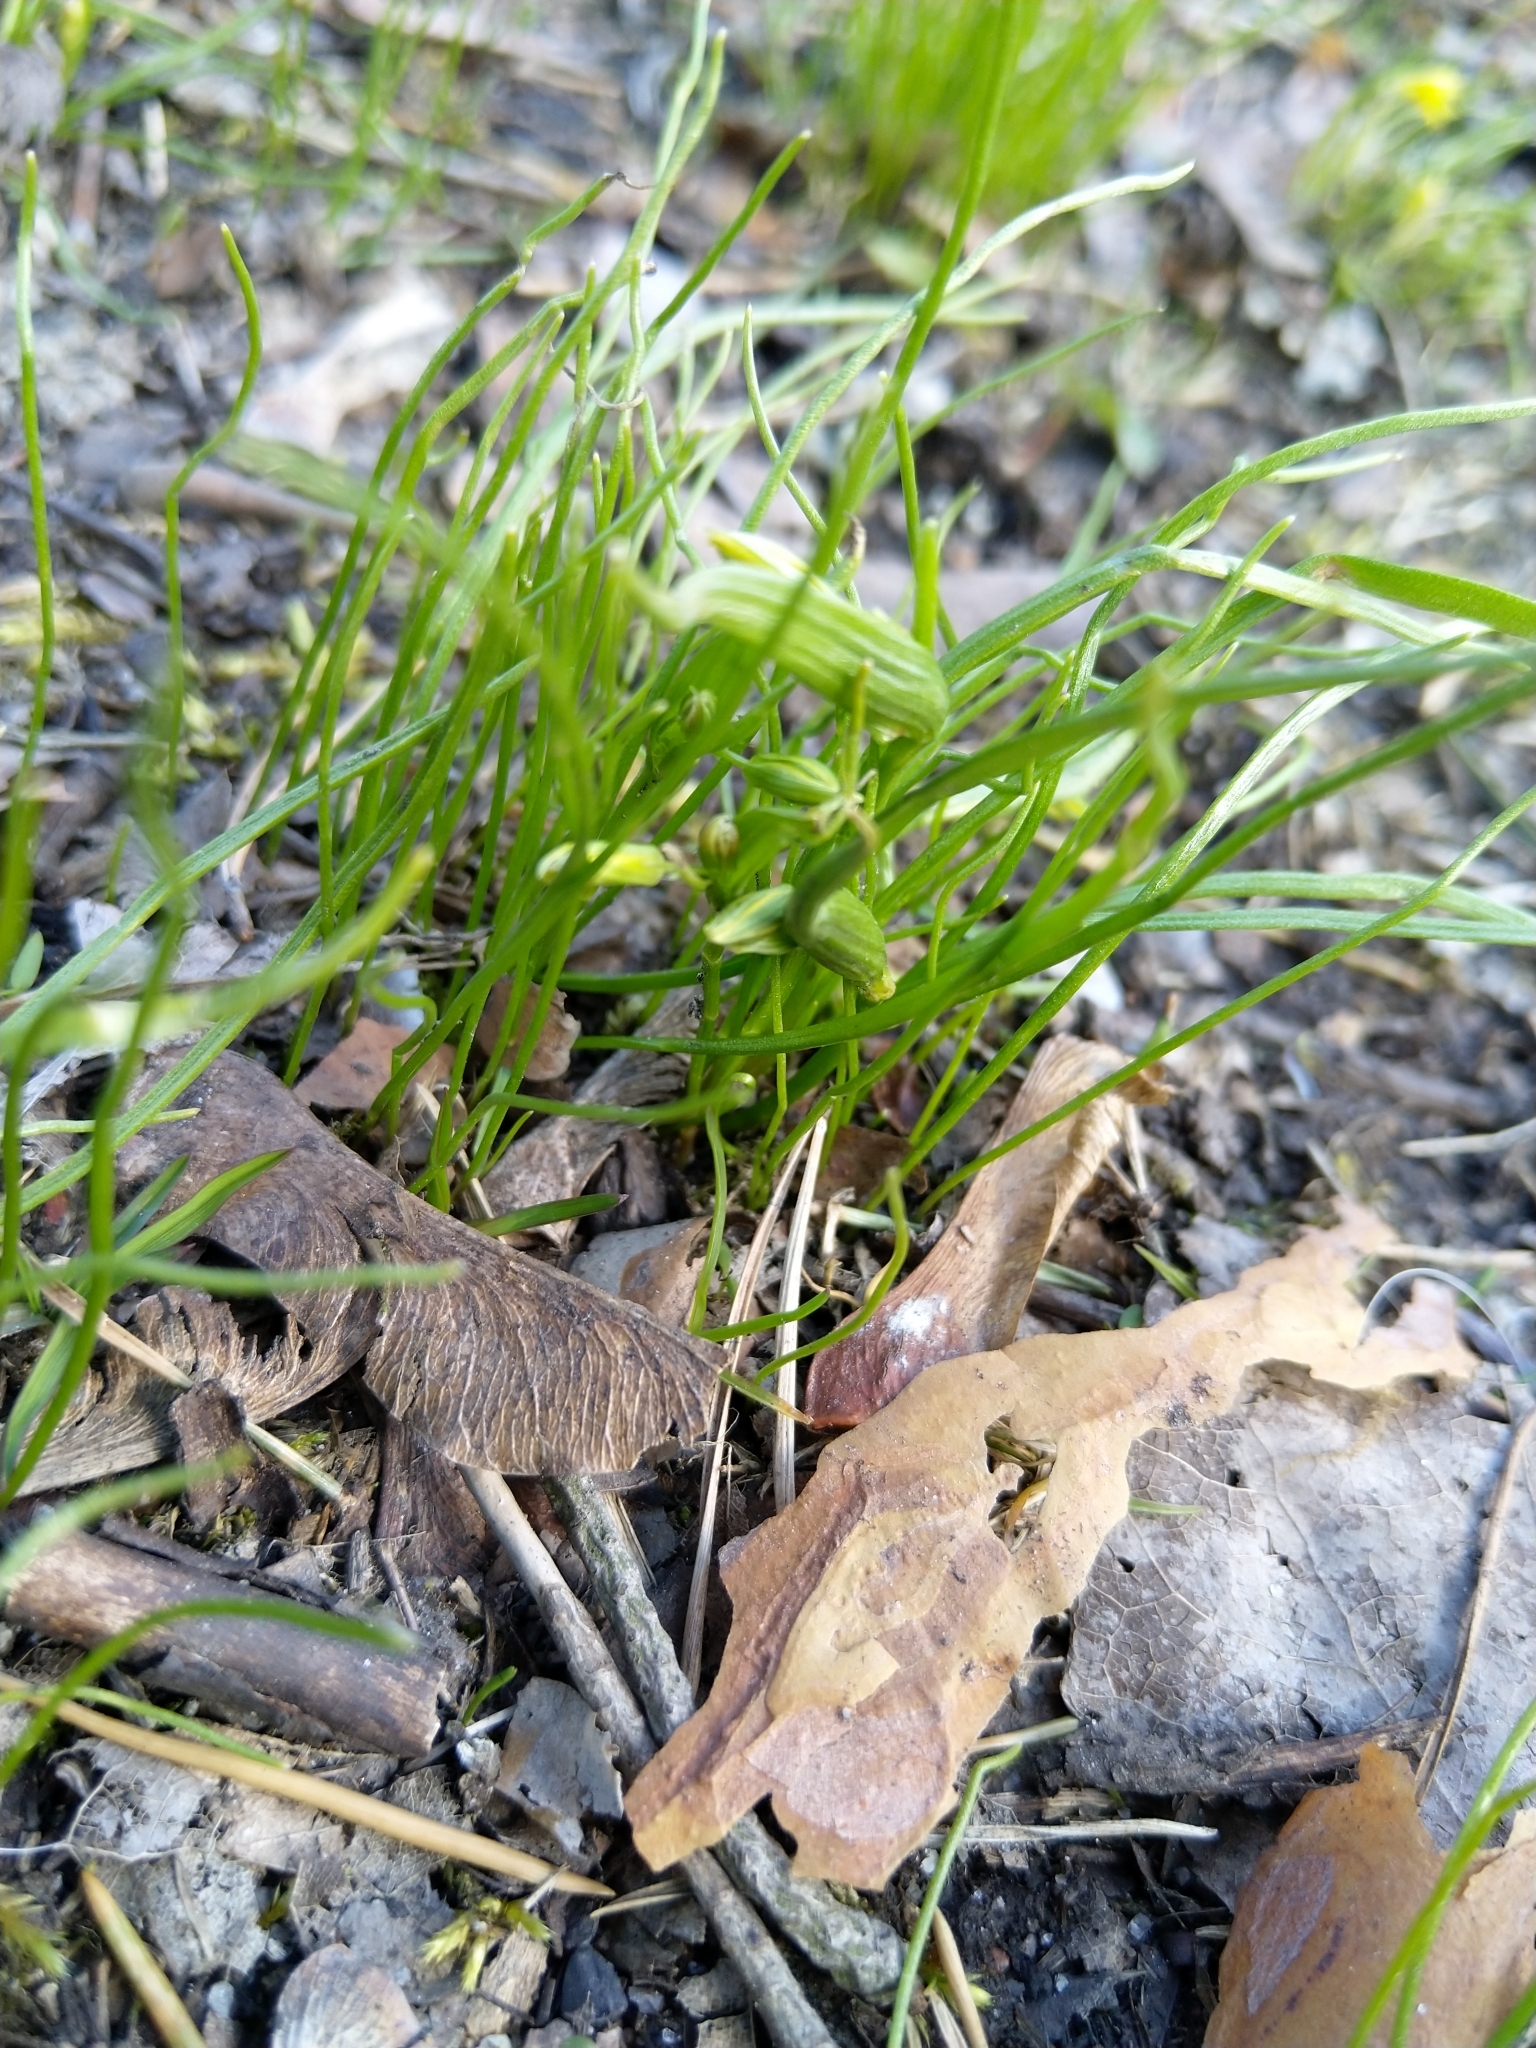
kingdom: Plantae
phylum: Tracheophyta
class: Liliopsida
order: Liliales
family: Liliaceae
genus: Gagea
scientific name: Gagea minima
